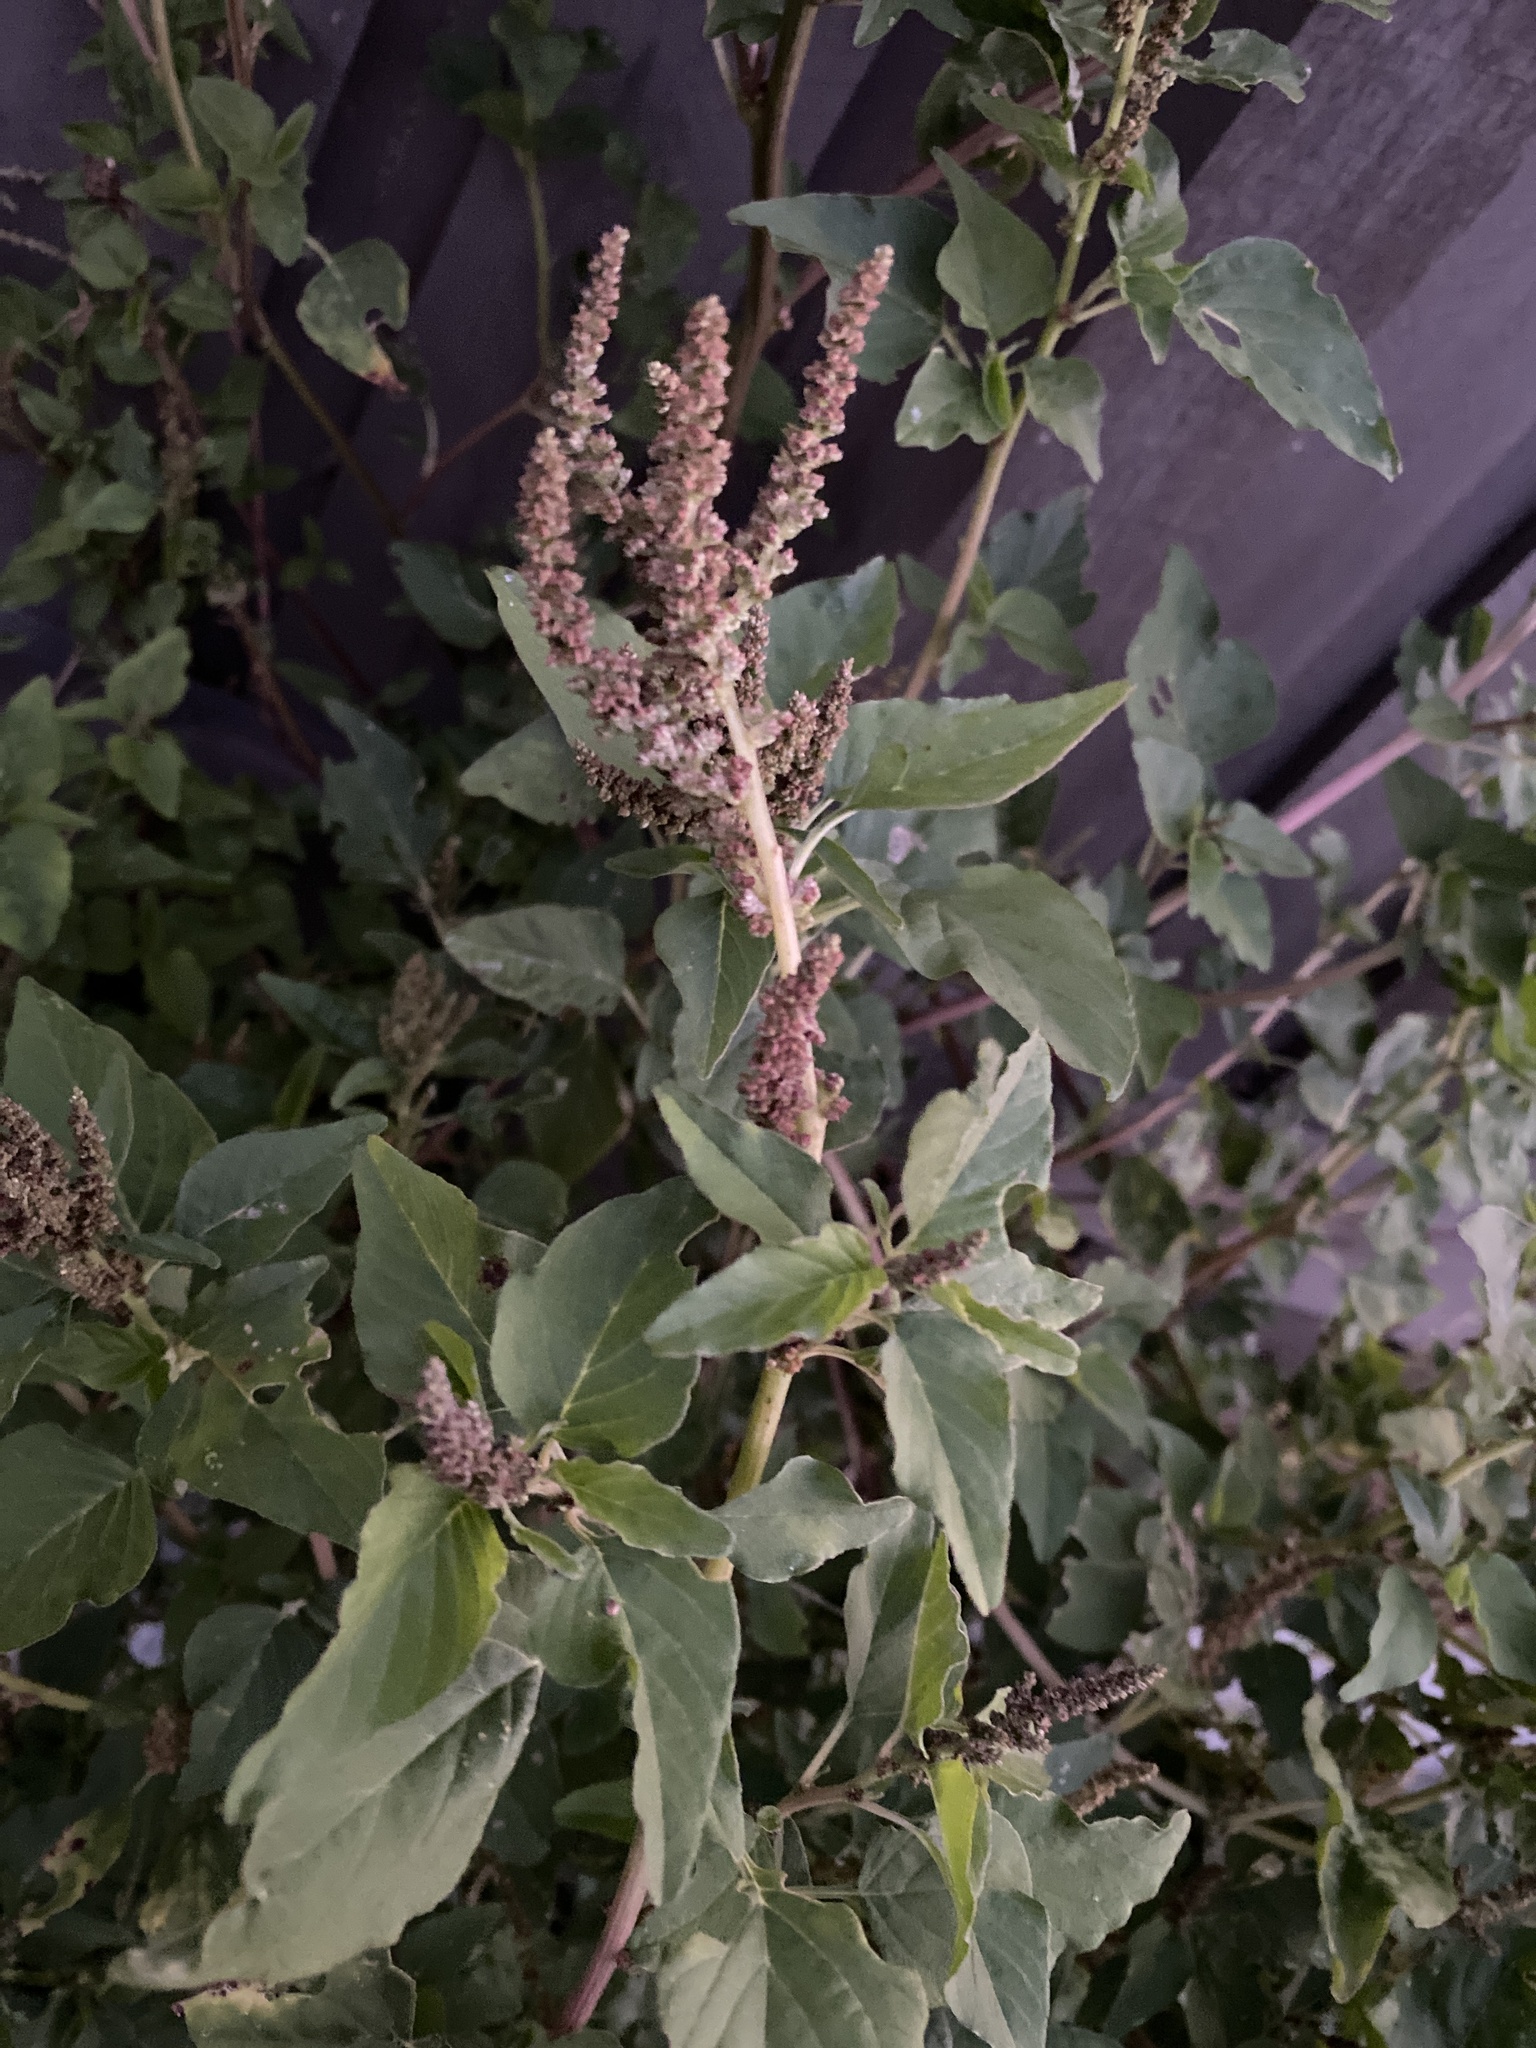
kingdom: Plantae
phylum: Tracheophyta
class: Magnoliopsida
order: Caryophyllales
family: Amaranthaceae
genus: Amaranthus
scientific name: Amaranthus viridis
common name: Slender amaranth
